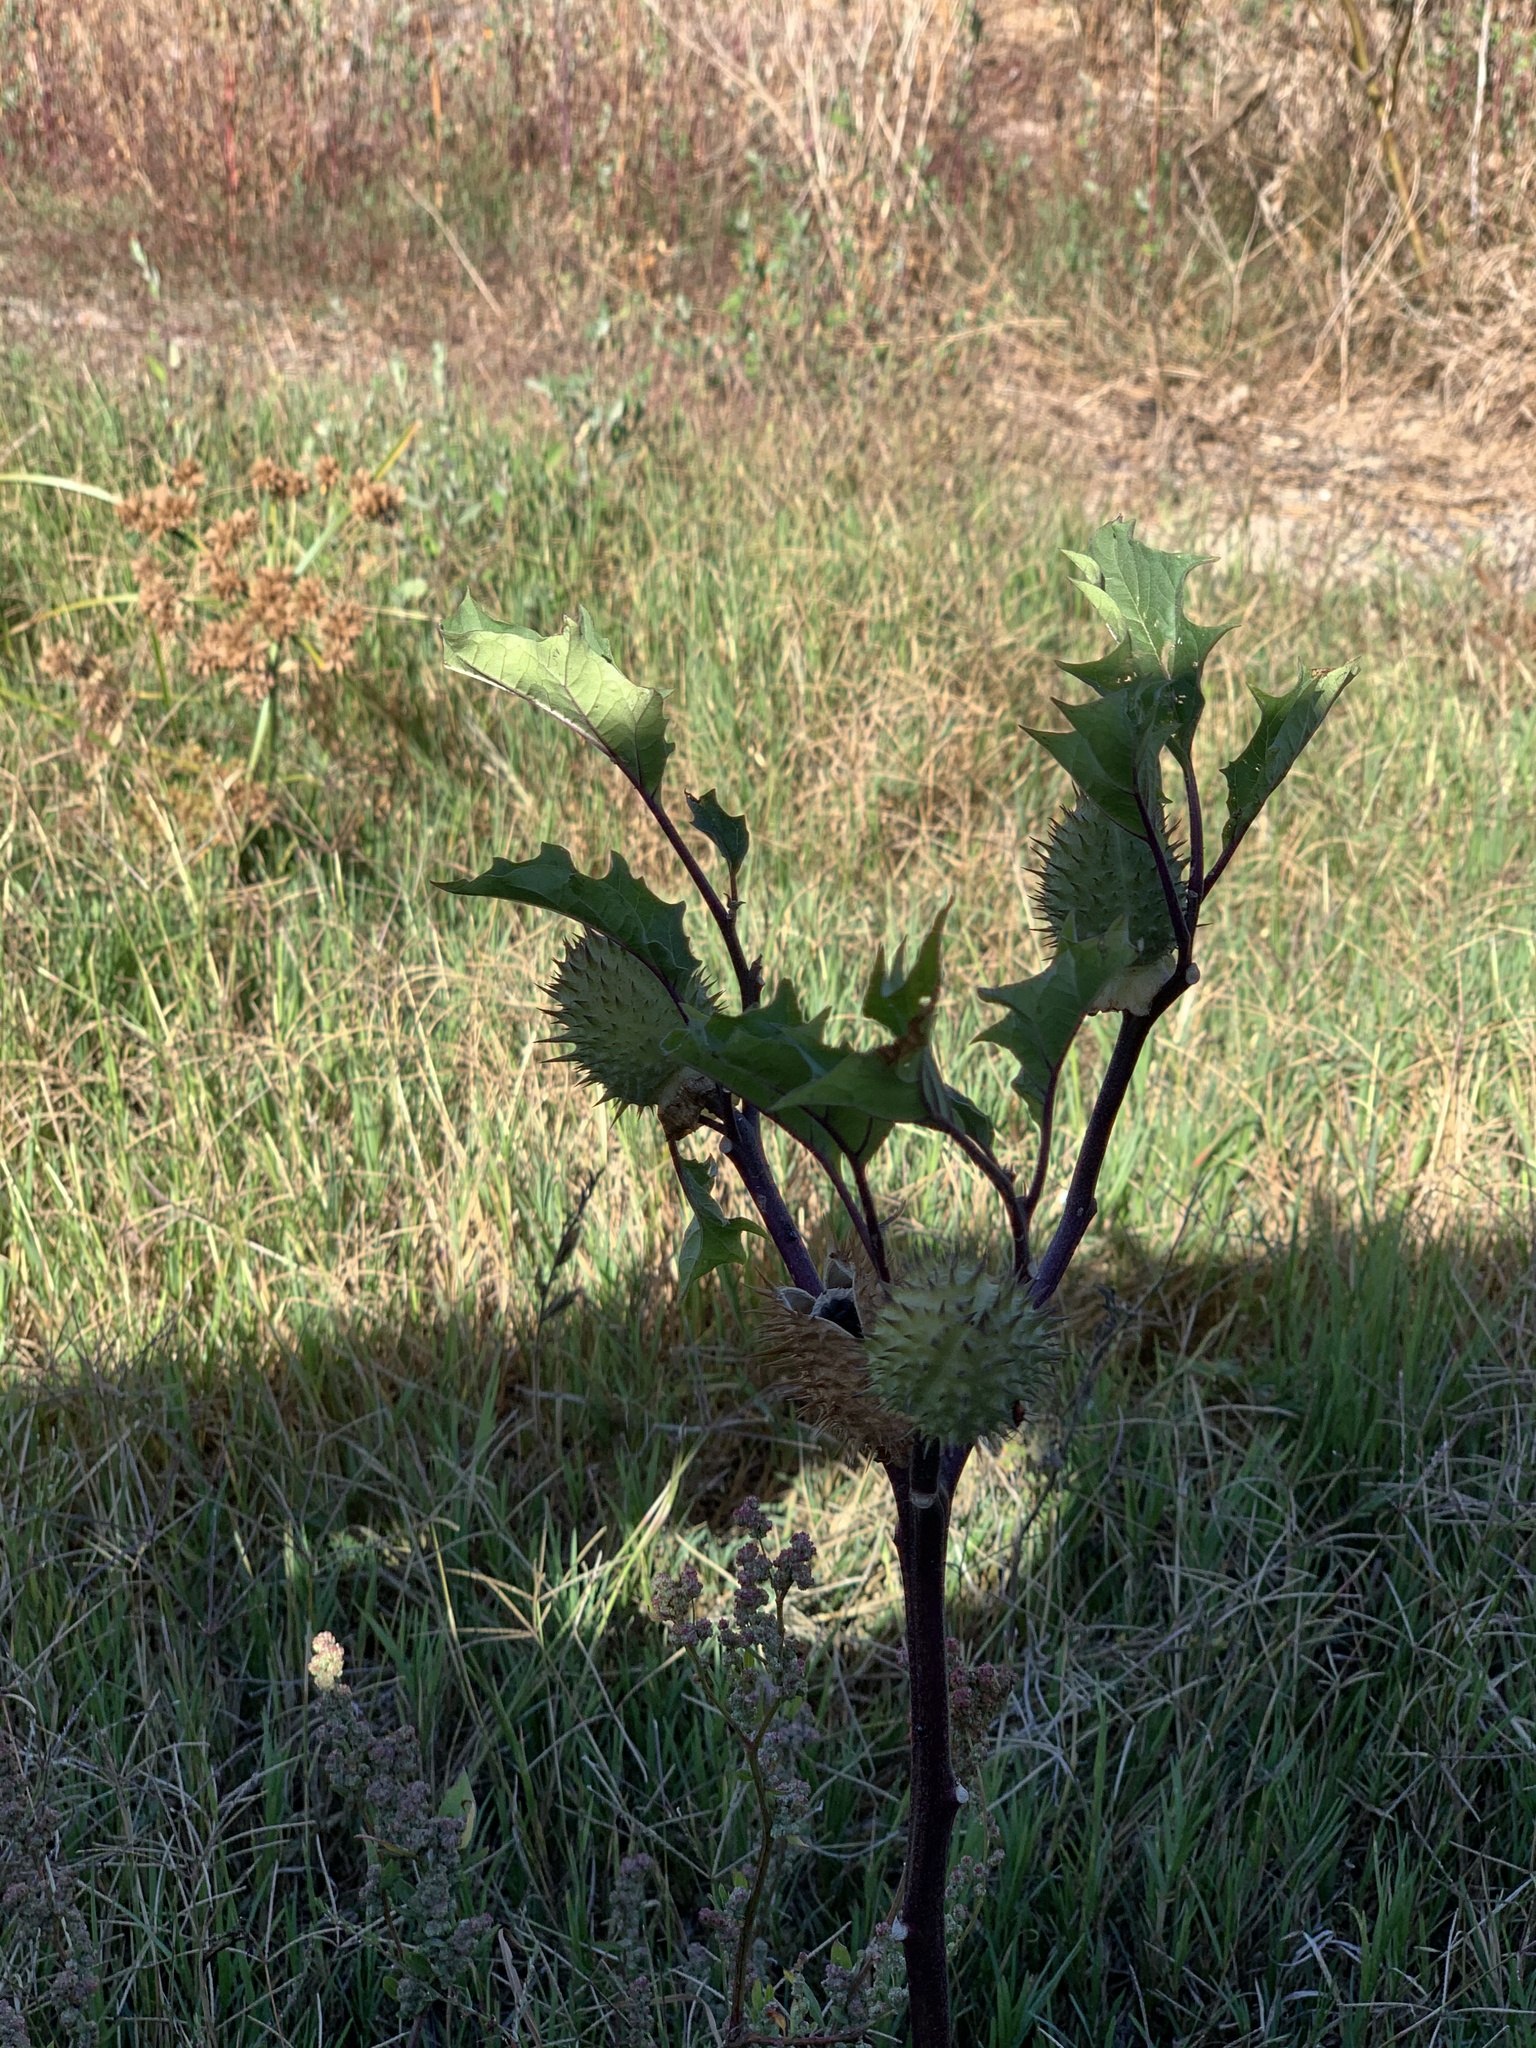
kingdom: Plantae
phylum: Tracheophyta
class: Magnoliopsida
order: Solanales
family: Solanaceae
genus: Datura
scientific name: Datura stramonium
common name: Thorn-apple
